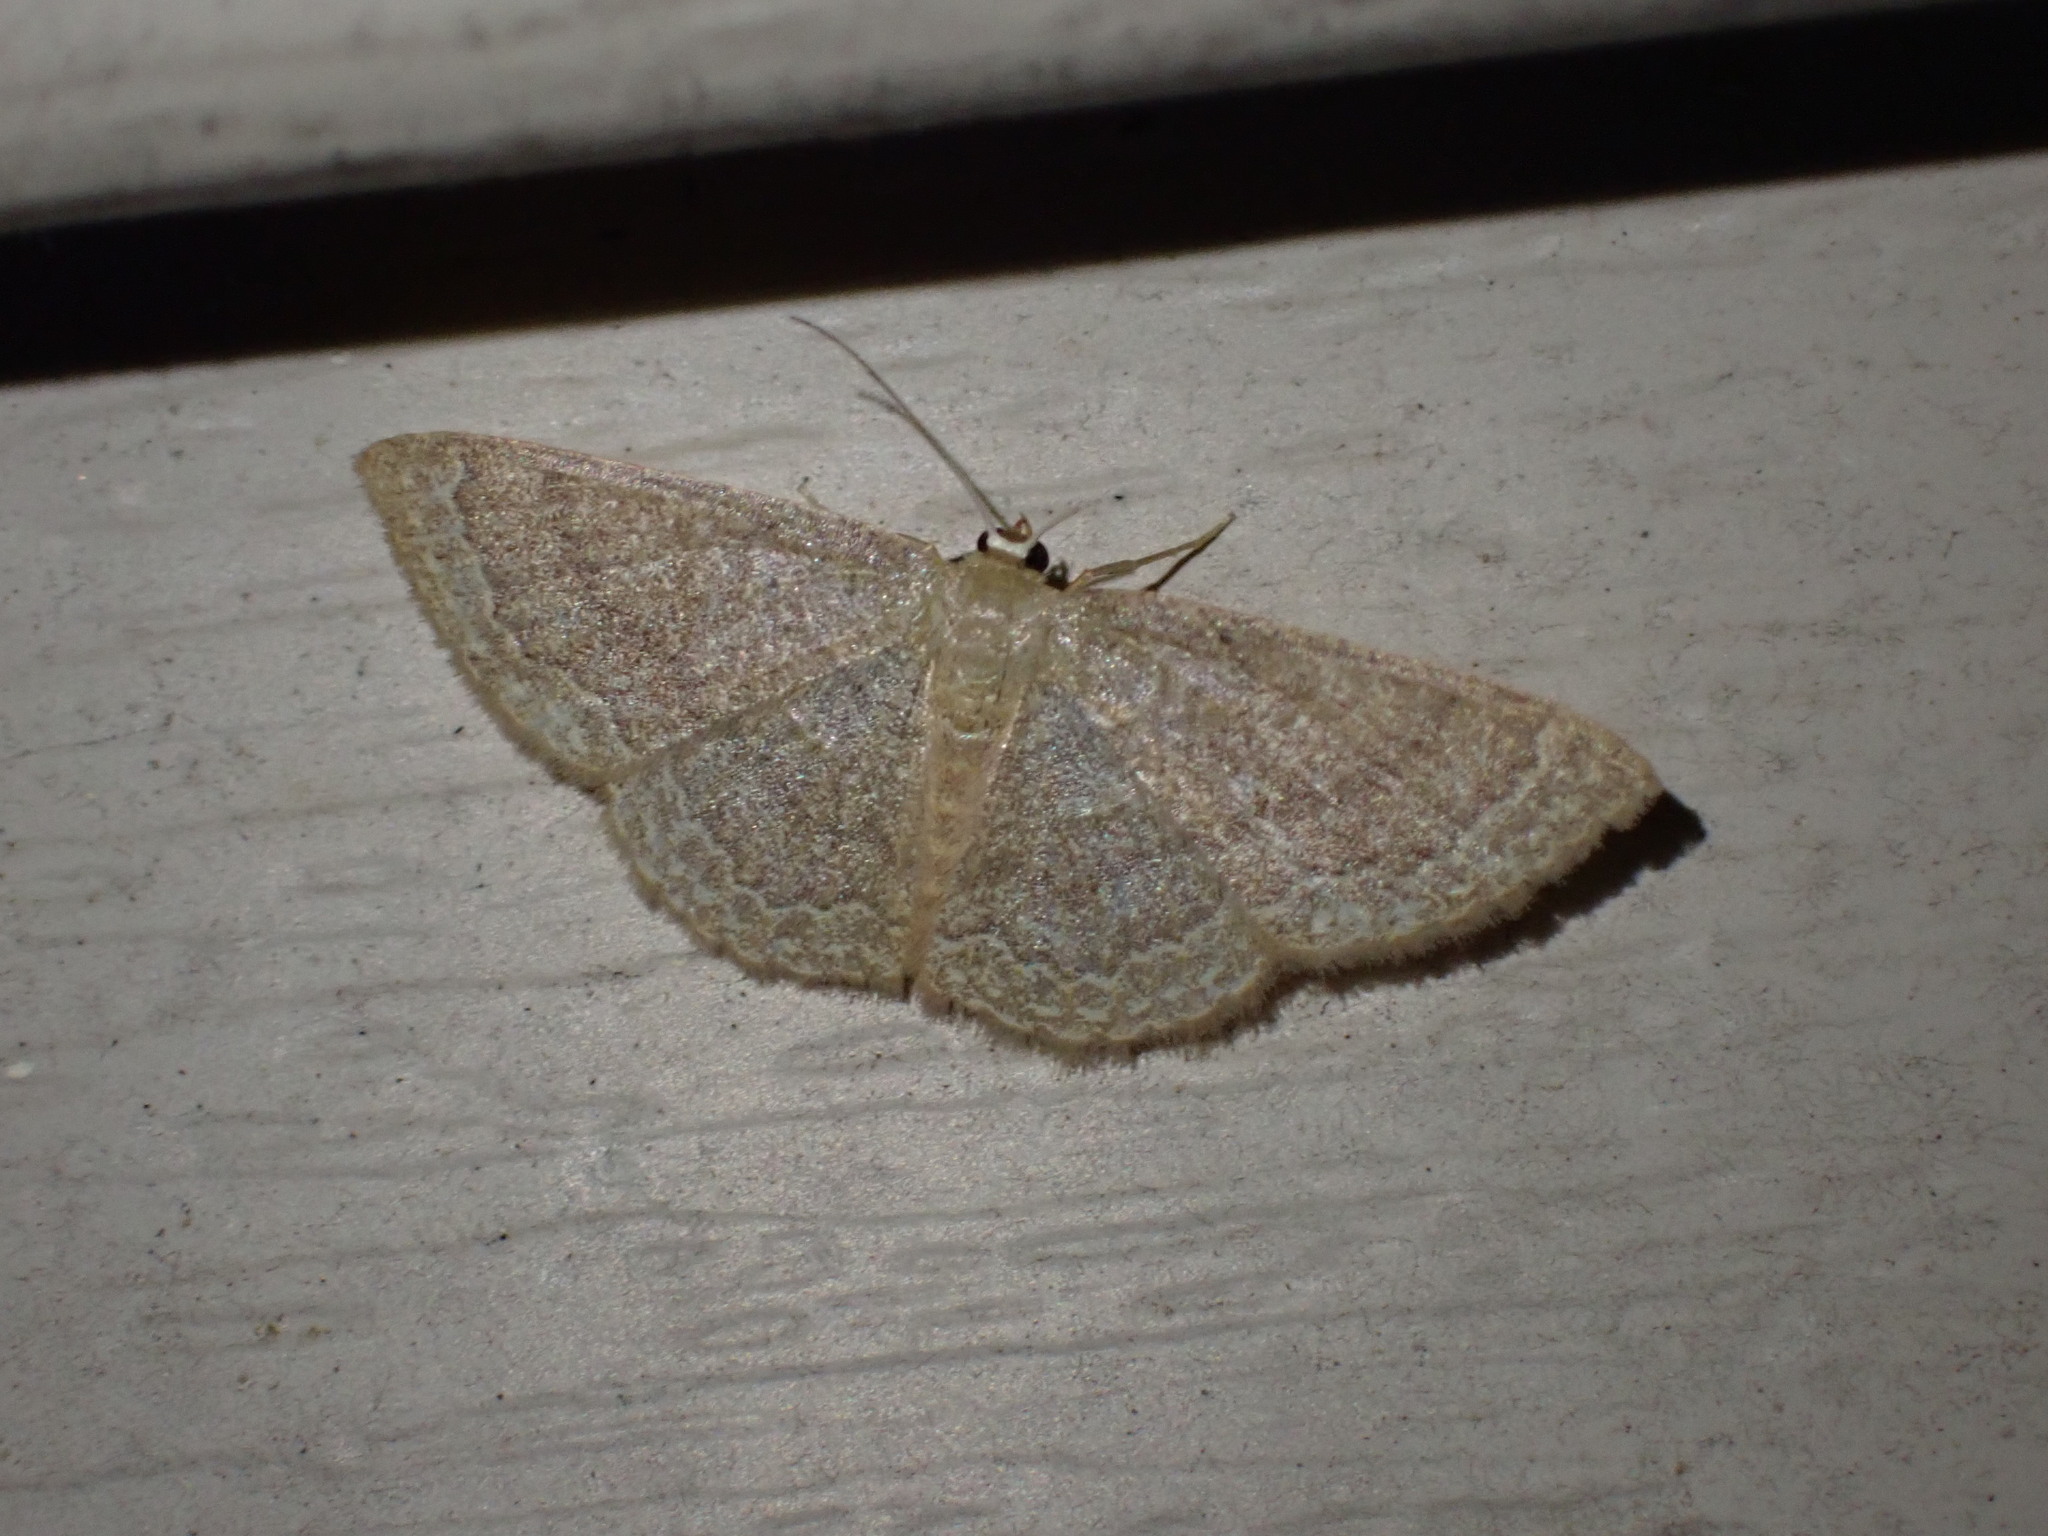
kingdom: Animalia
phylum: Arthropoda
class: Insecta
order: Lepidoptera
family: Geometridae
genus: Pleuroprucha
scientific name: Pleuroprucha insulsaria
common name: Common tan wave
